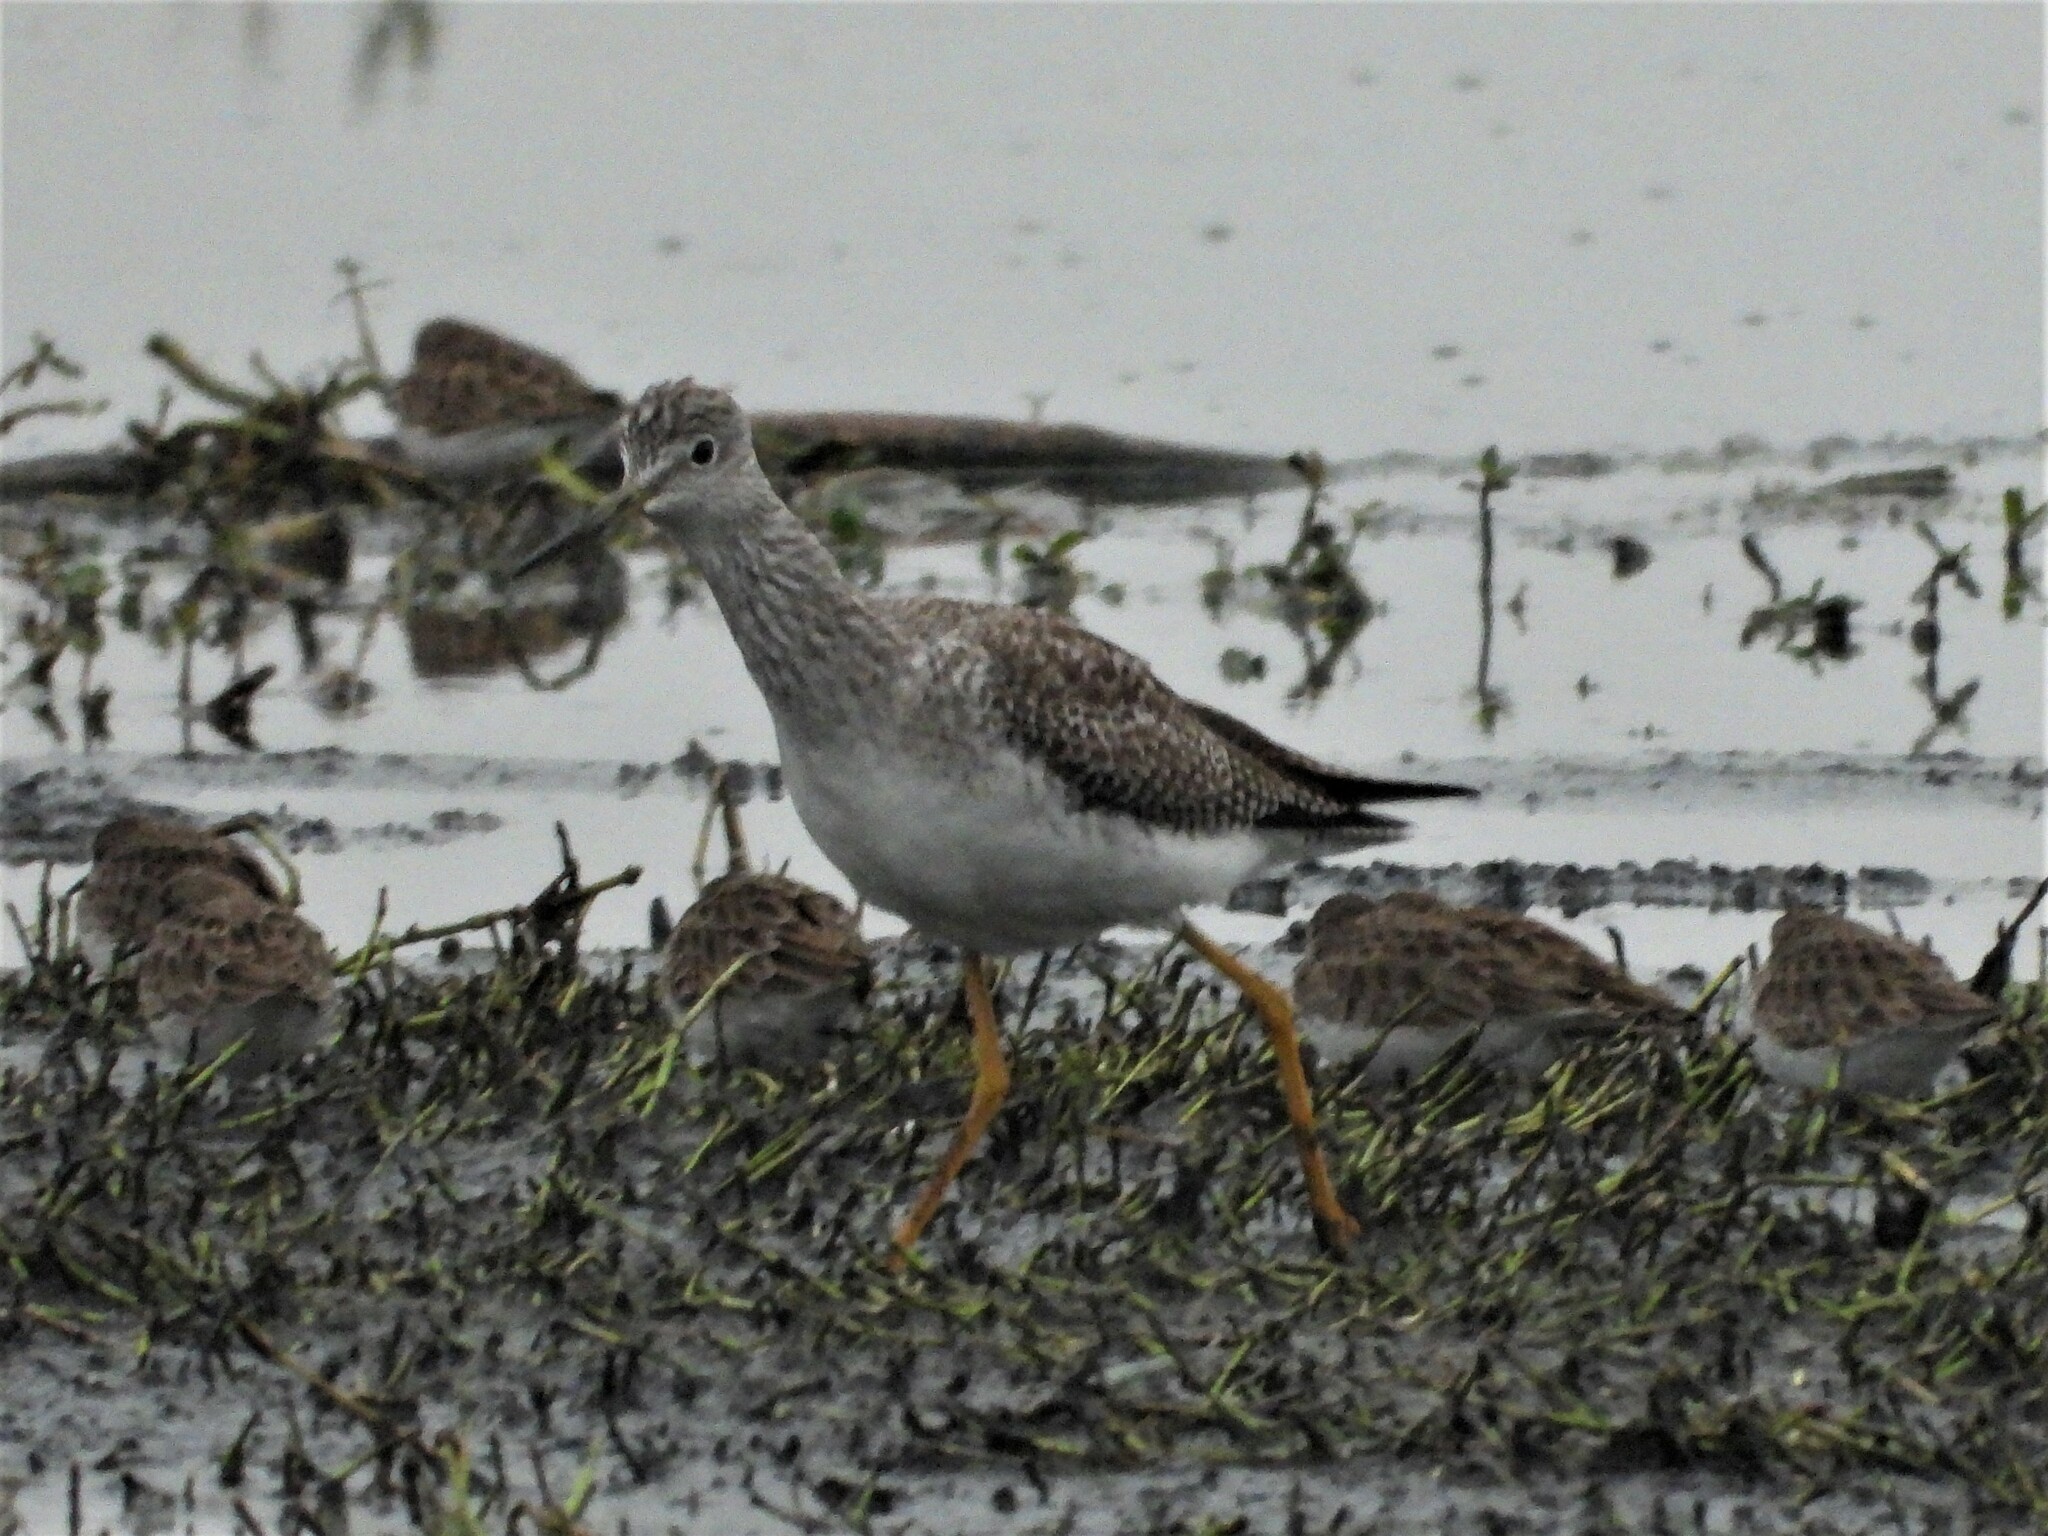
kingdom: Animalia
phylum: Chordata
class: Aves
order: Charadriiformes
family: Scolopacidae
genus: Tringa
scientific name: Tringa melanoleuca
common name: Greater yellowlegs
